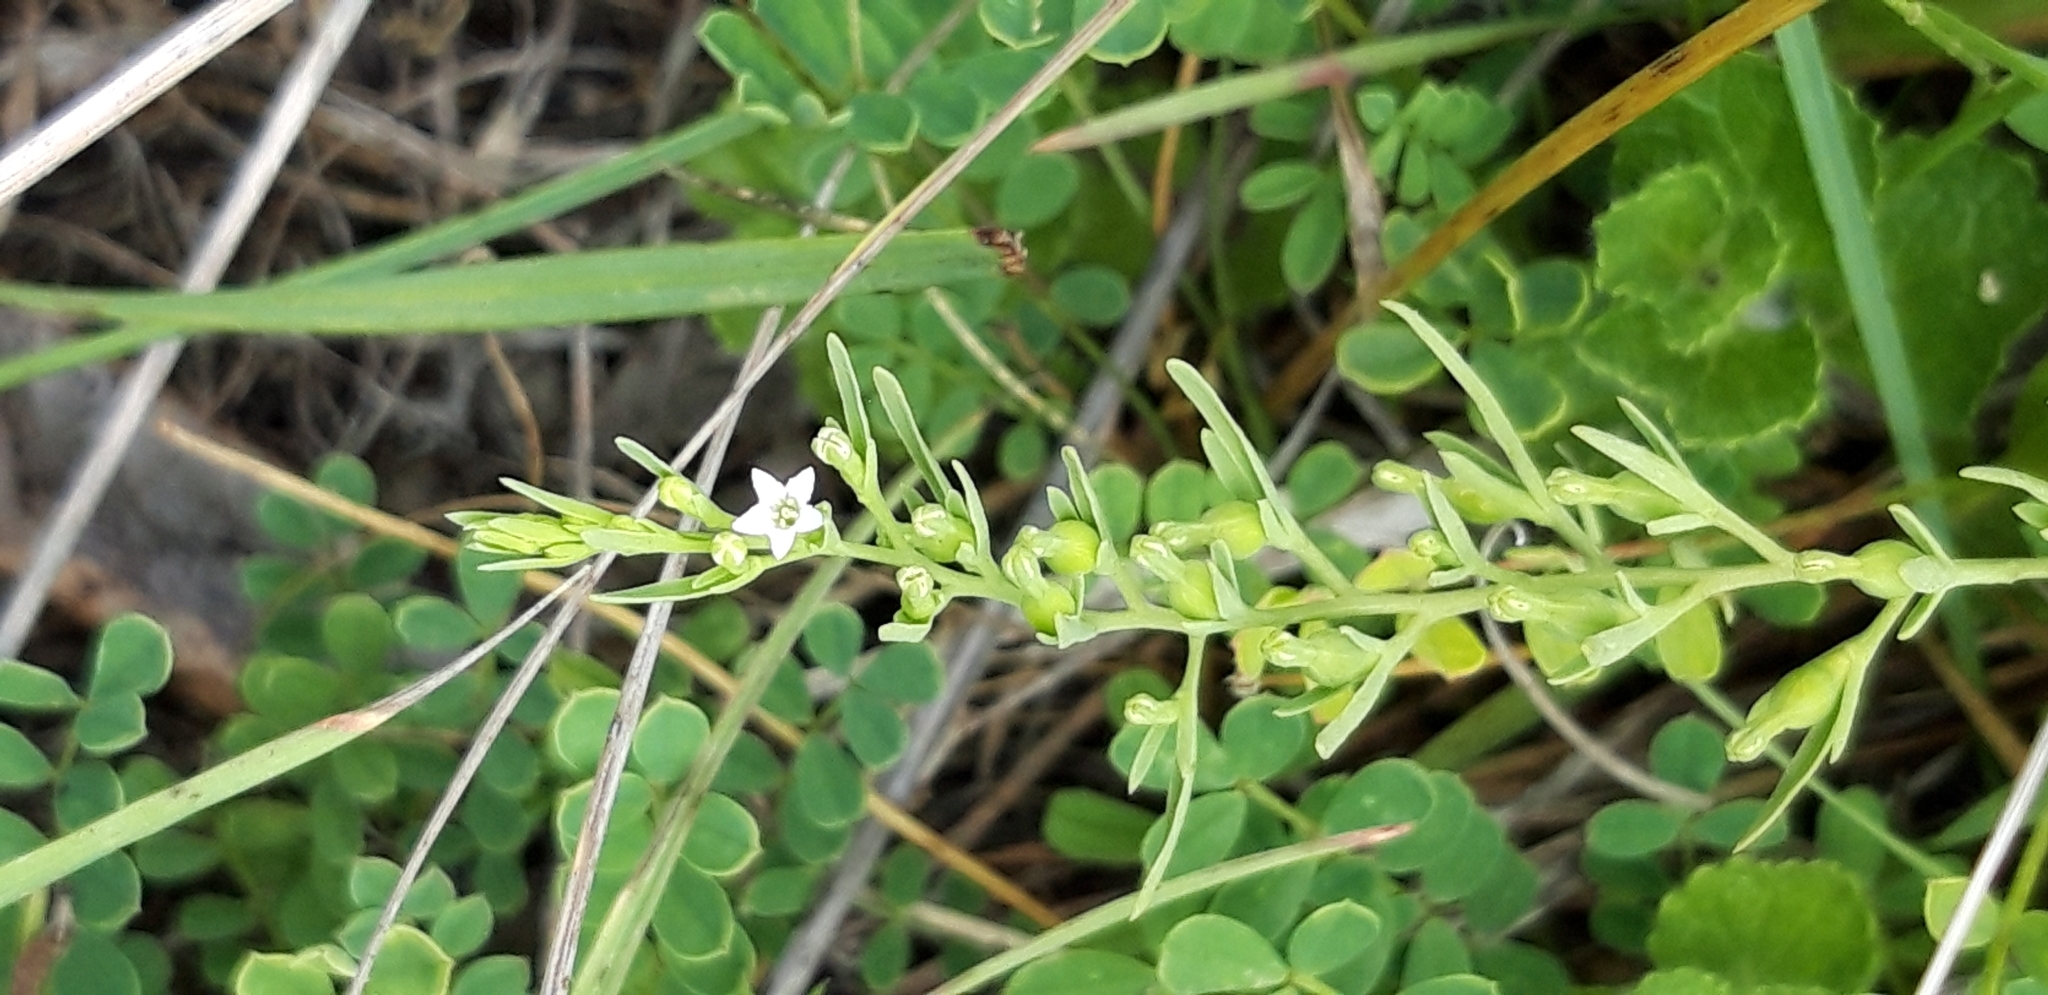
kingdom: Plantae
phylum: Tracheophyta
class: Magnoliopsida
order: Santalales
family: Thesiaceae
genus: Thesium
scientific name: Thesium alpinum
